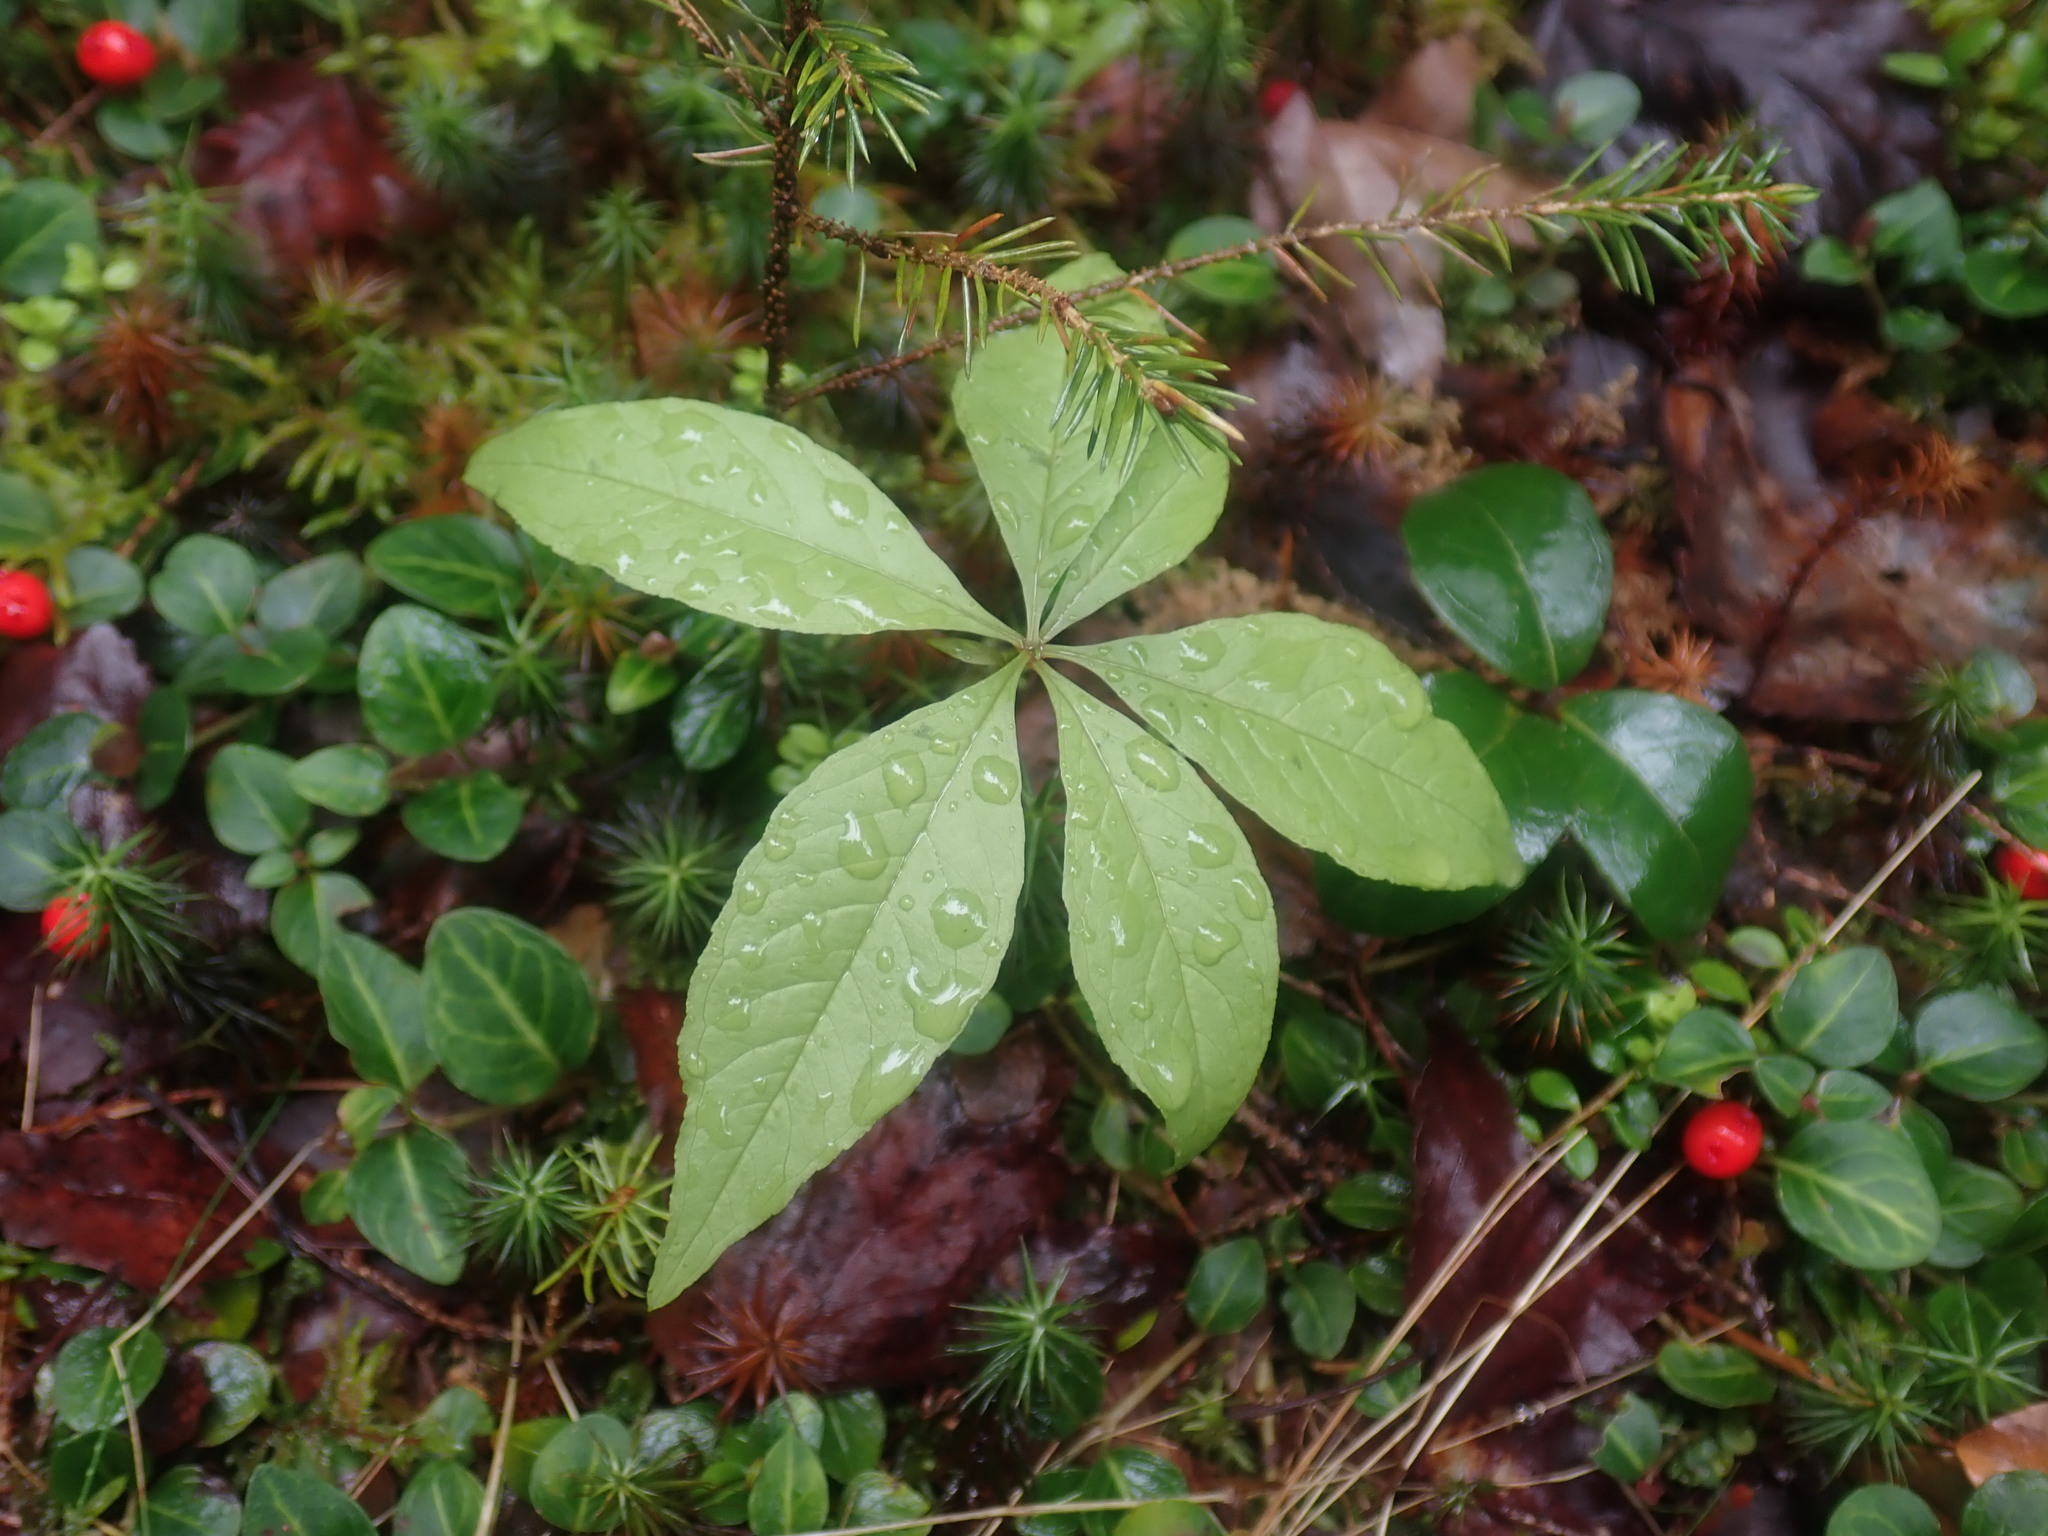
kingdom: Plantae
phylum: Tracheophyta
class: Magnoliopsida
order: Ericales
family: Primulaceae
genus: Lysimachia
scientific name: Lysimachia borealis
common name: American starflower
